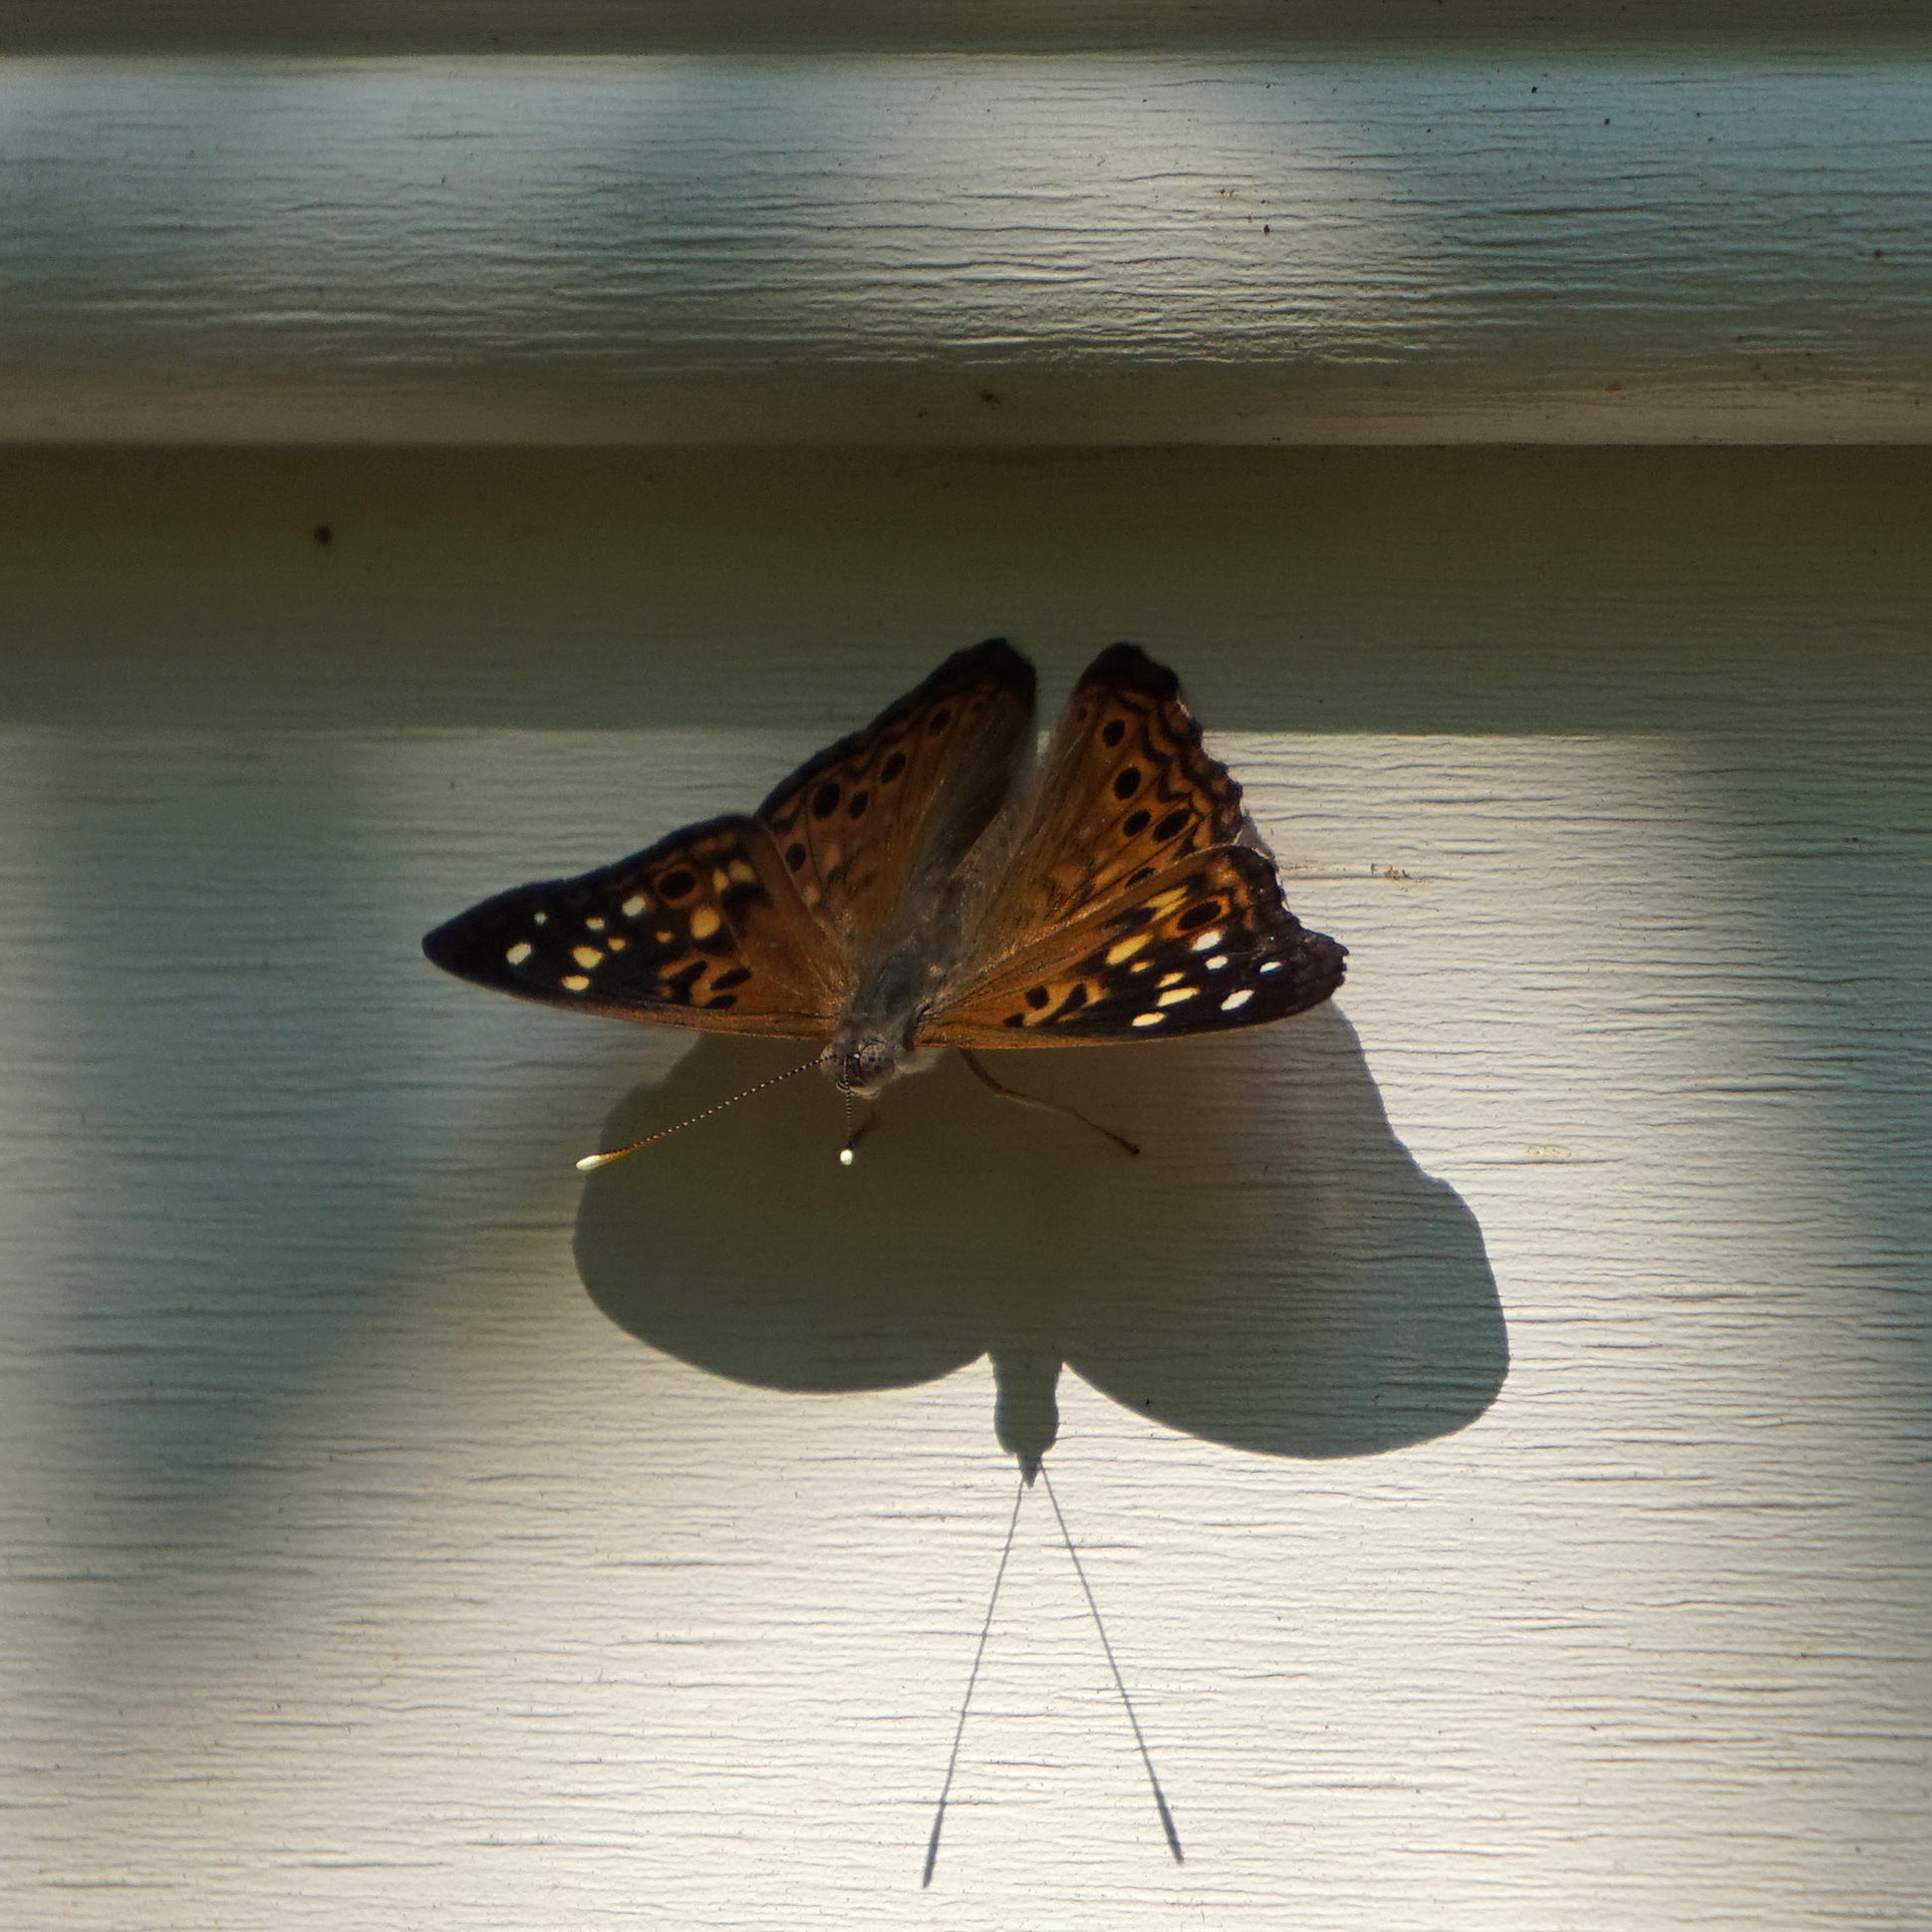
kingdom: Animalia
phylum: Arthropoda
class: Insecta
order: Lepidoptera
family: Nymphalidae
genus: Asterocampa
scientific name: Asterocampa celtis
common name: Hackberry emperor
